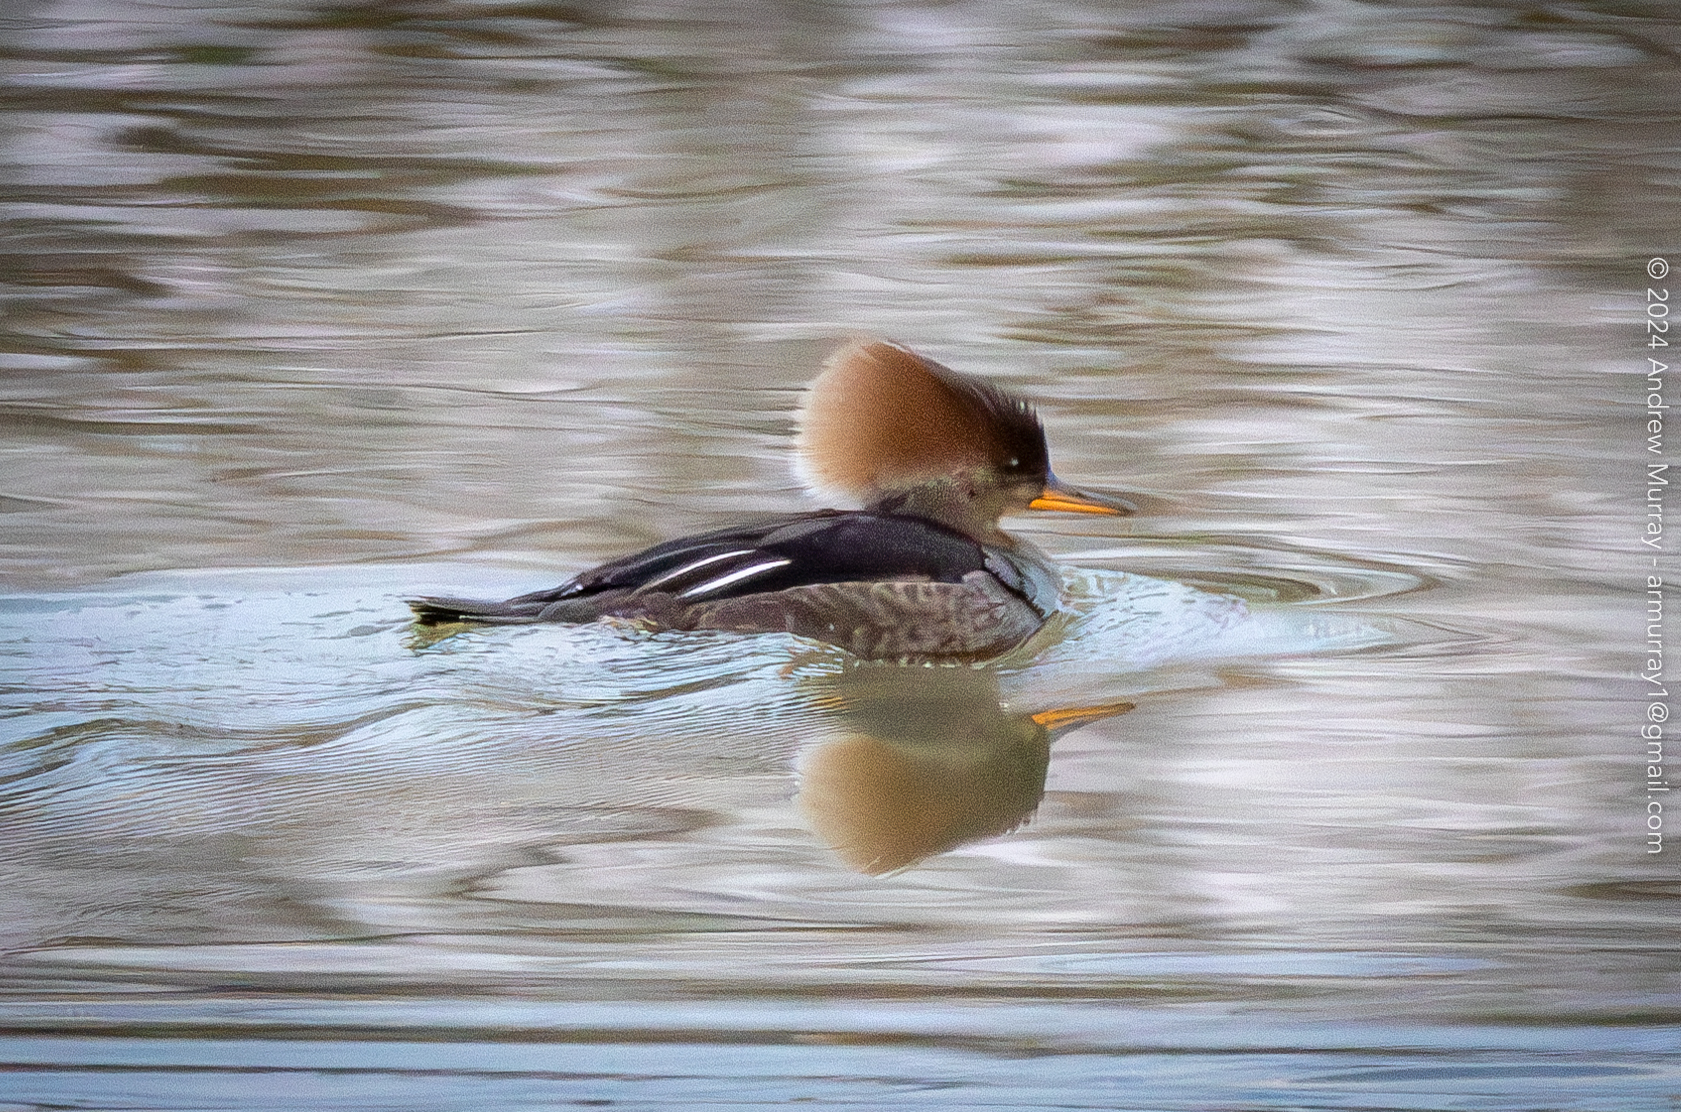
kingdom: Animalia
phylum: Chordata
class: Aves
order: Anseriformes
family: Anatidae
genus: Lophodytes
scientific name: Lophodytes cucullatus
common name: Hooded merganser
